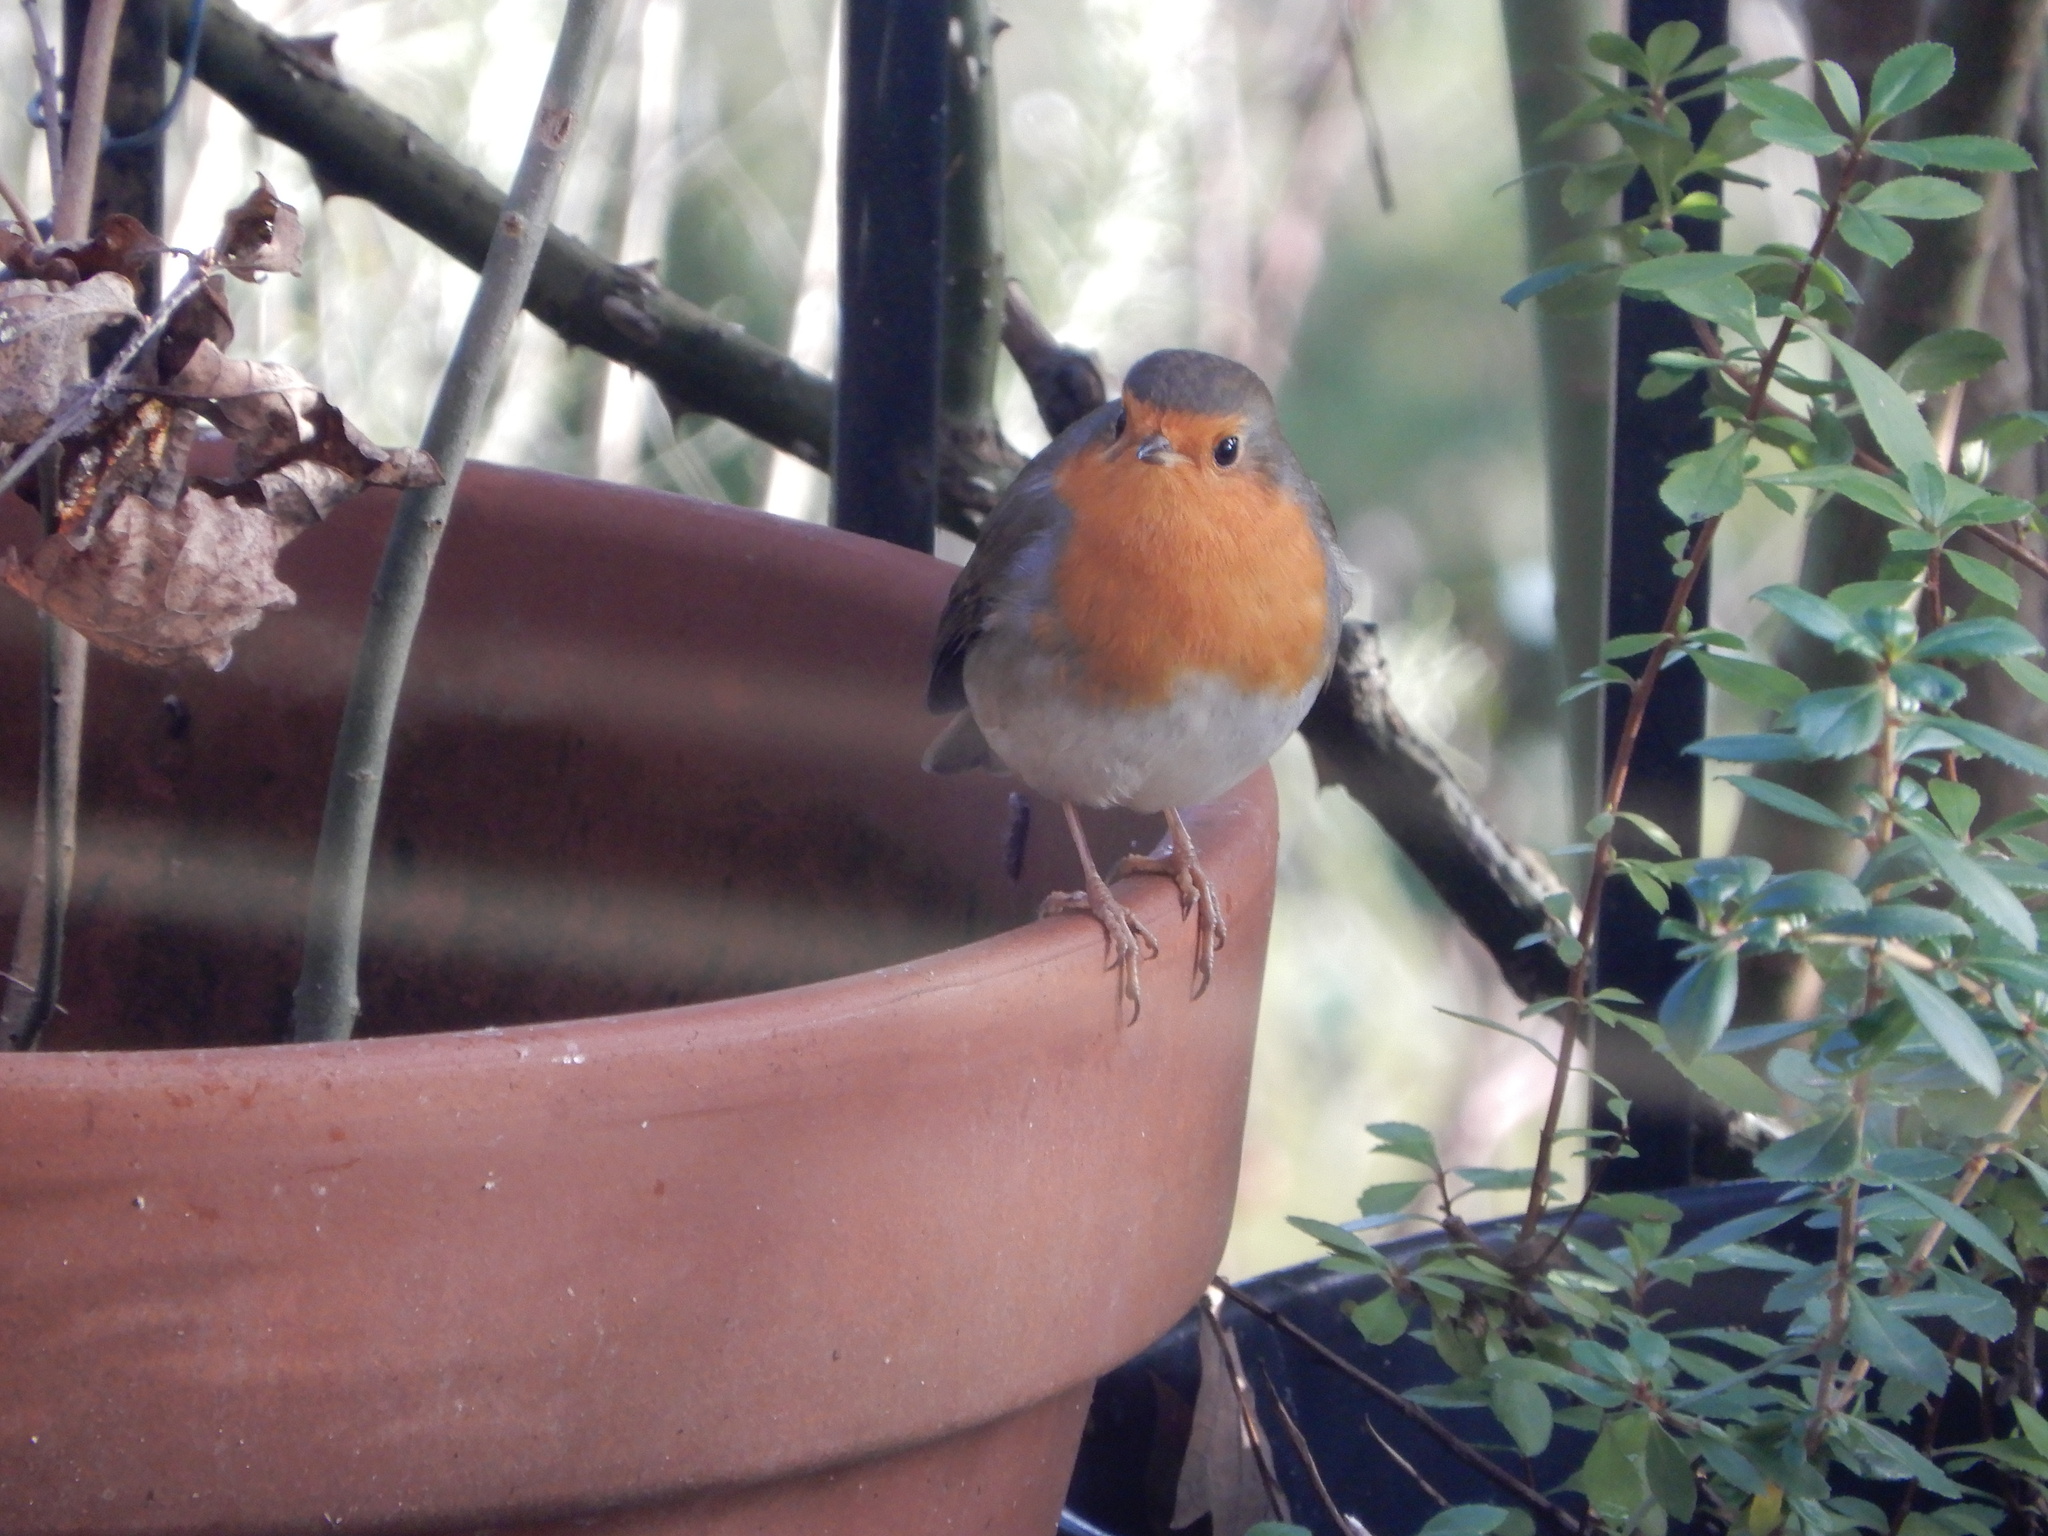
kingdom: Animalia
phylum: Chordata
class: Aves
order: Passeriformes
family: Muscicapidae
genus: Erithacus
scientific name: Erithacus rubecula
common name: European robin
